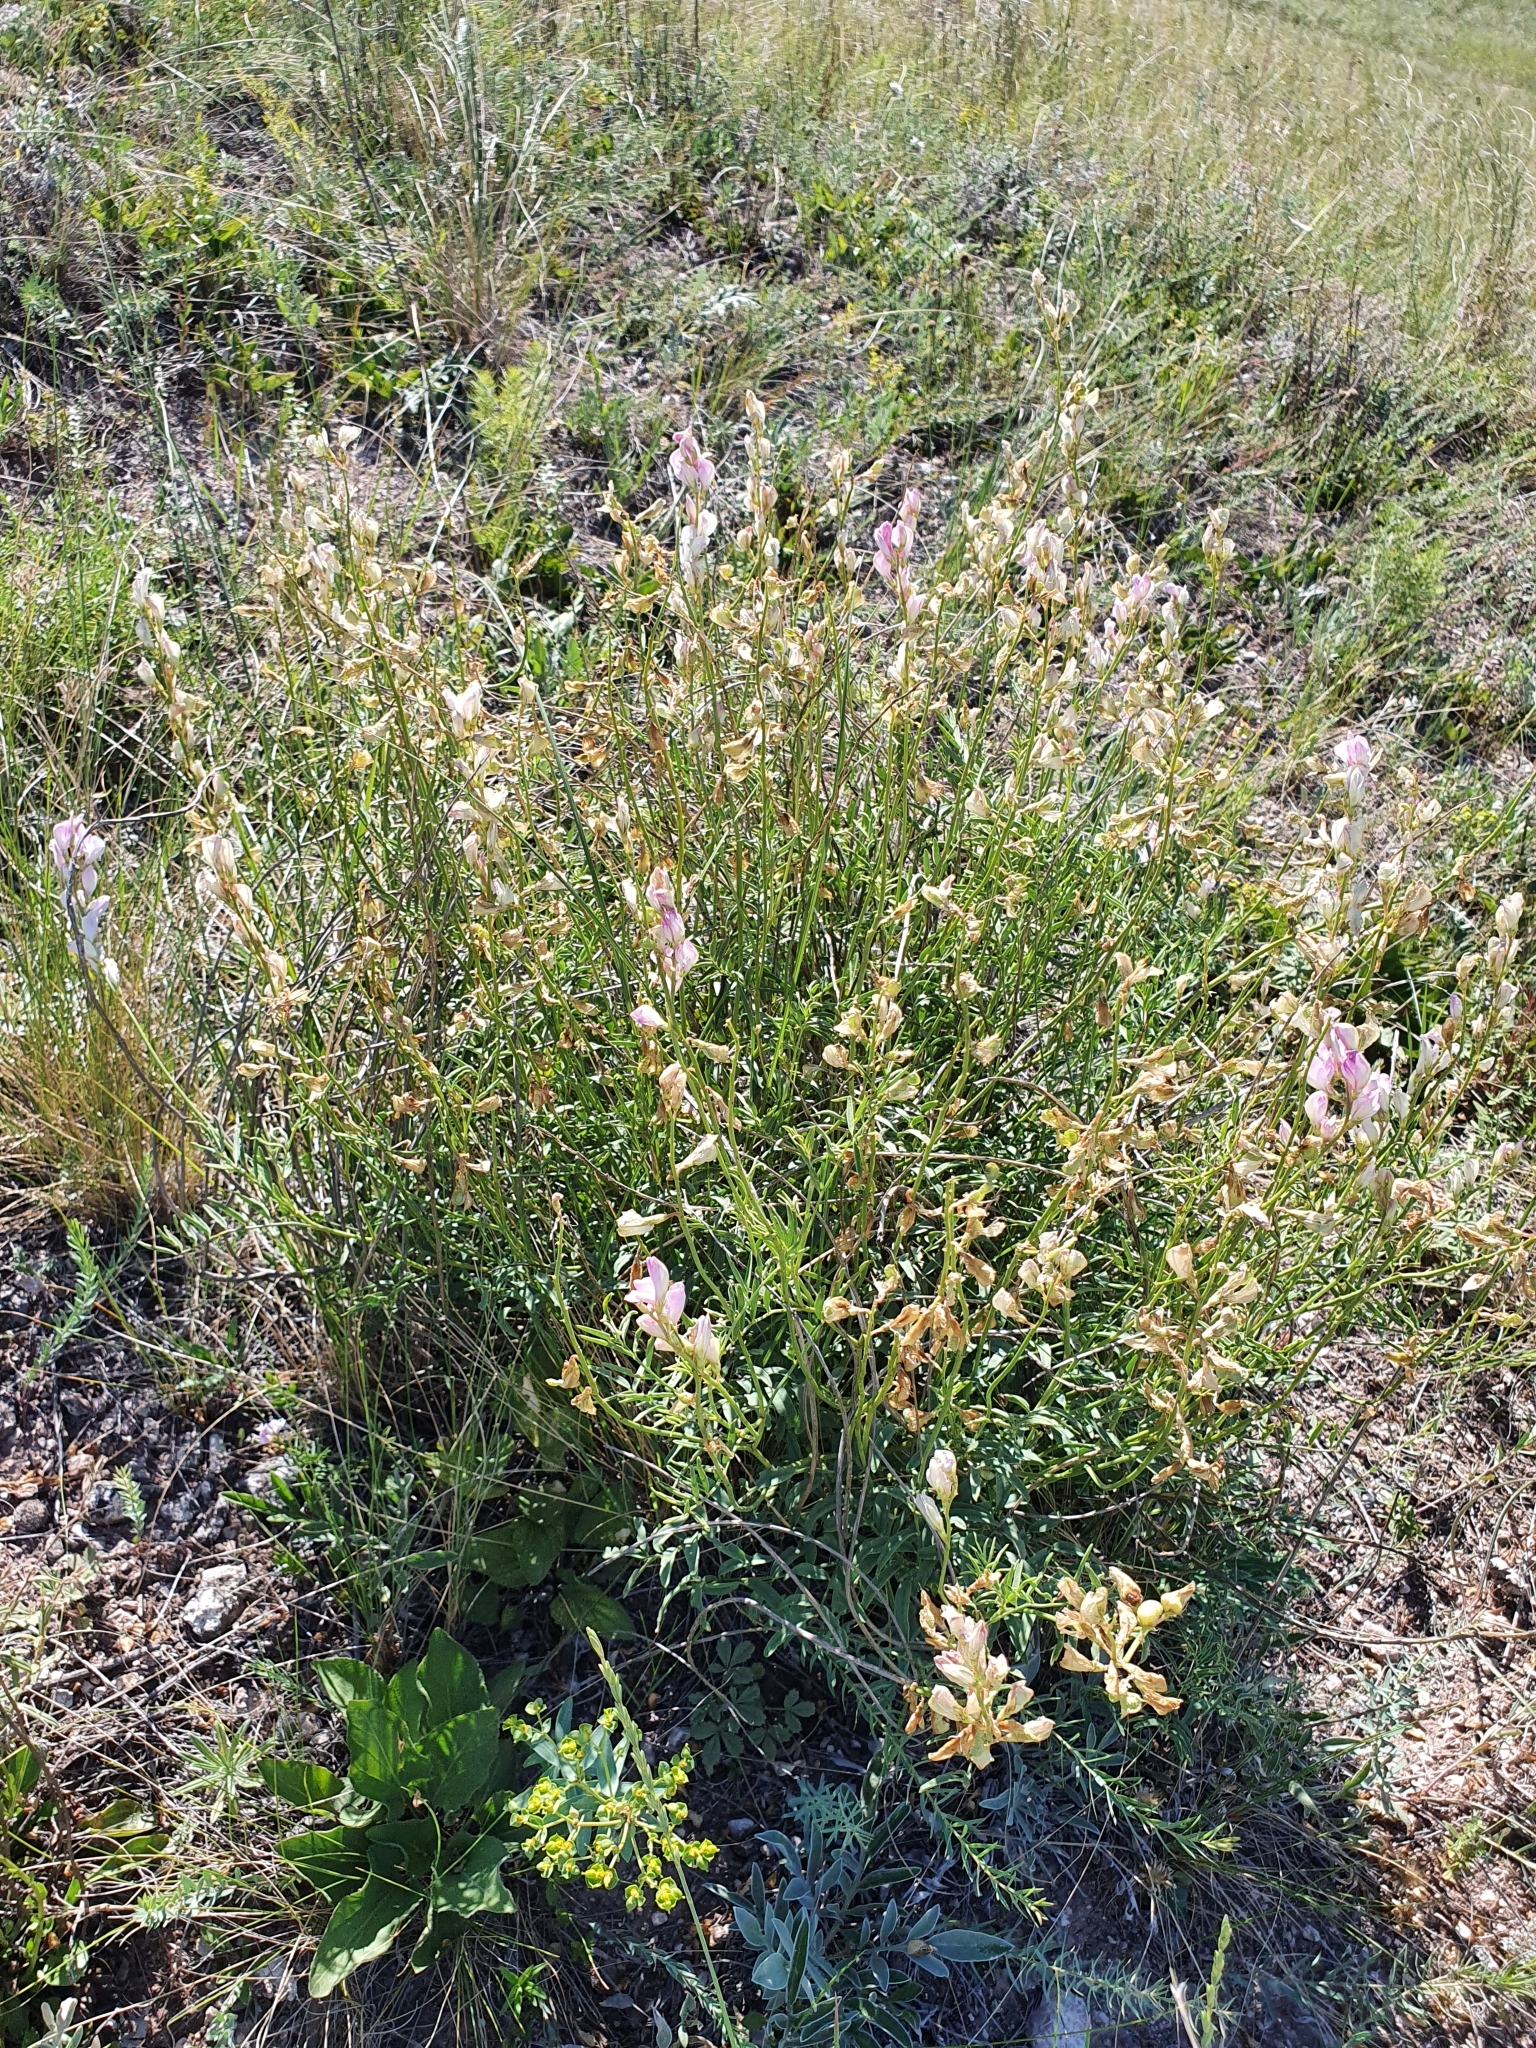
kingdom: Plantae
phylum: Tracheophyta
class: Magnoliopsida
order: Fabales
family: Fabaceae
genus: Hedysarum
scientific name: Hedysarum razoumovianum
